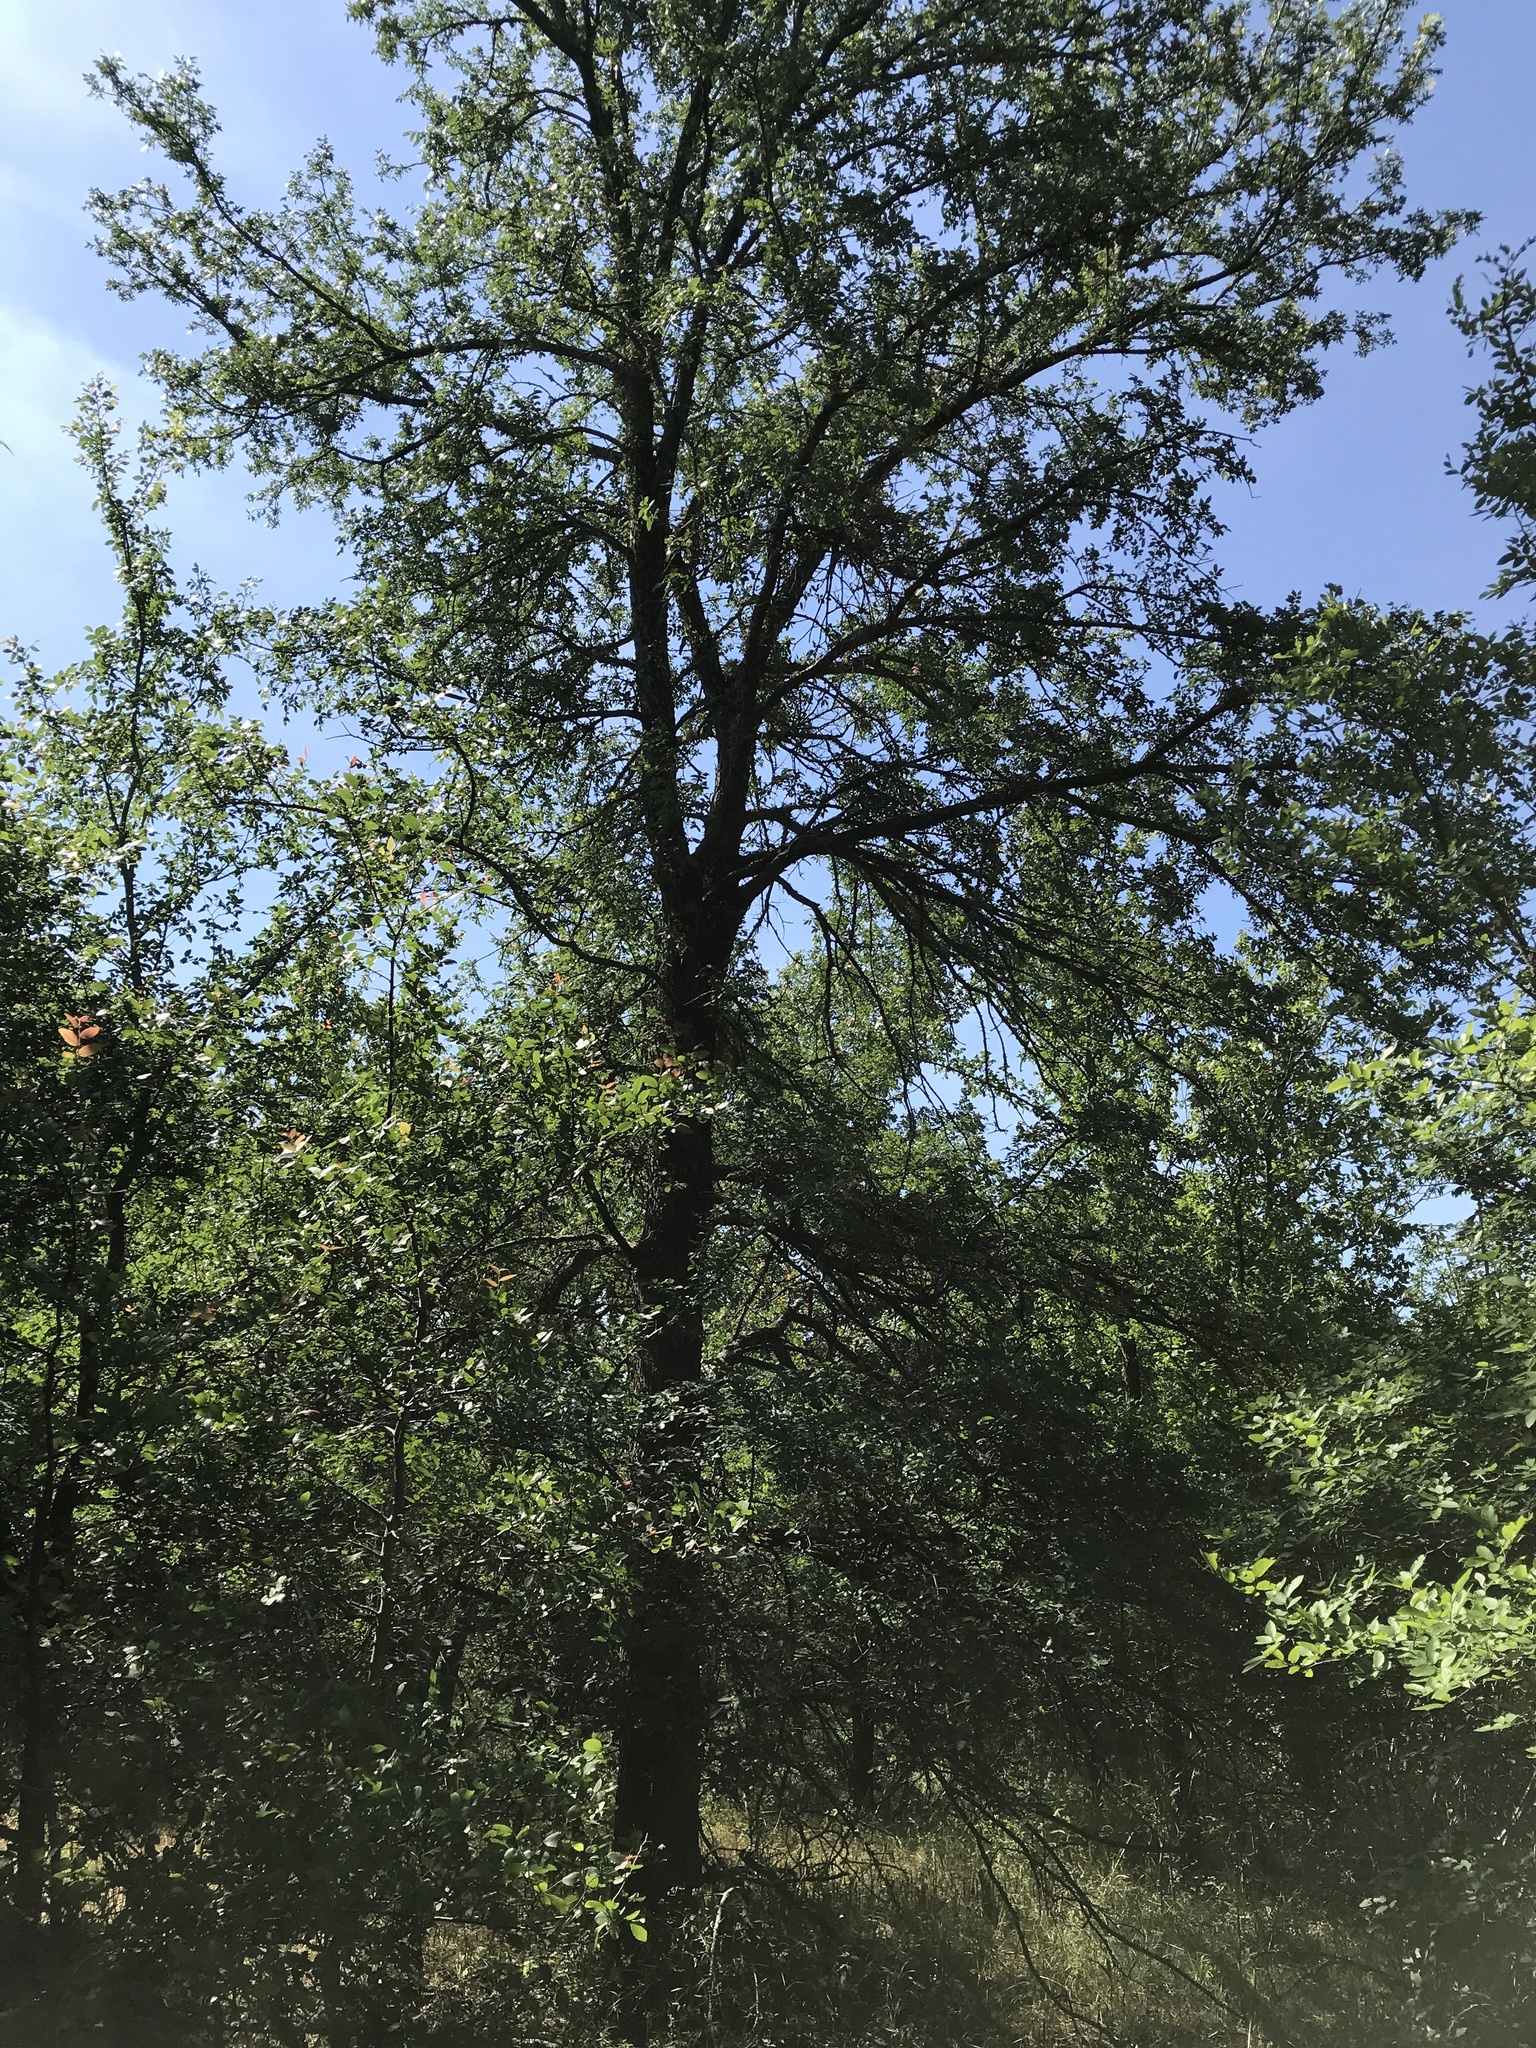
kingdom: Plantae
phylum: Tracheophyta
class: Magnoliopsida
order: Rosales
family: Ulmaceae
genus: Ulmus
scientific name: Ulmus crassifolia
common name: Basket elm
